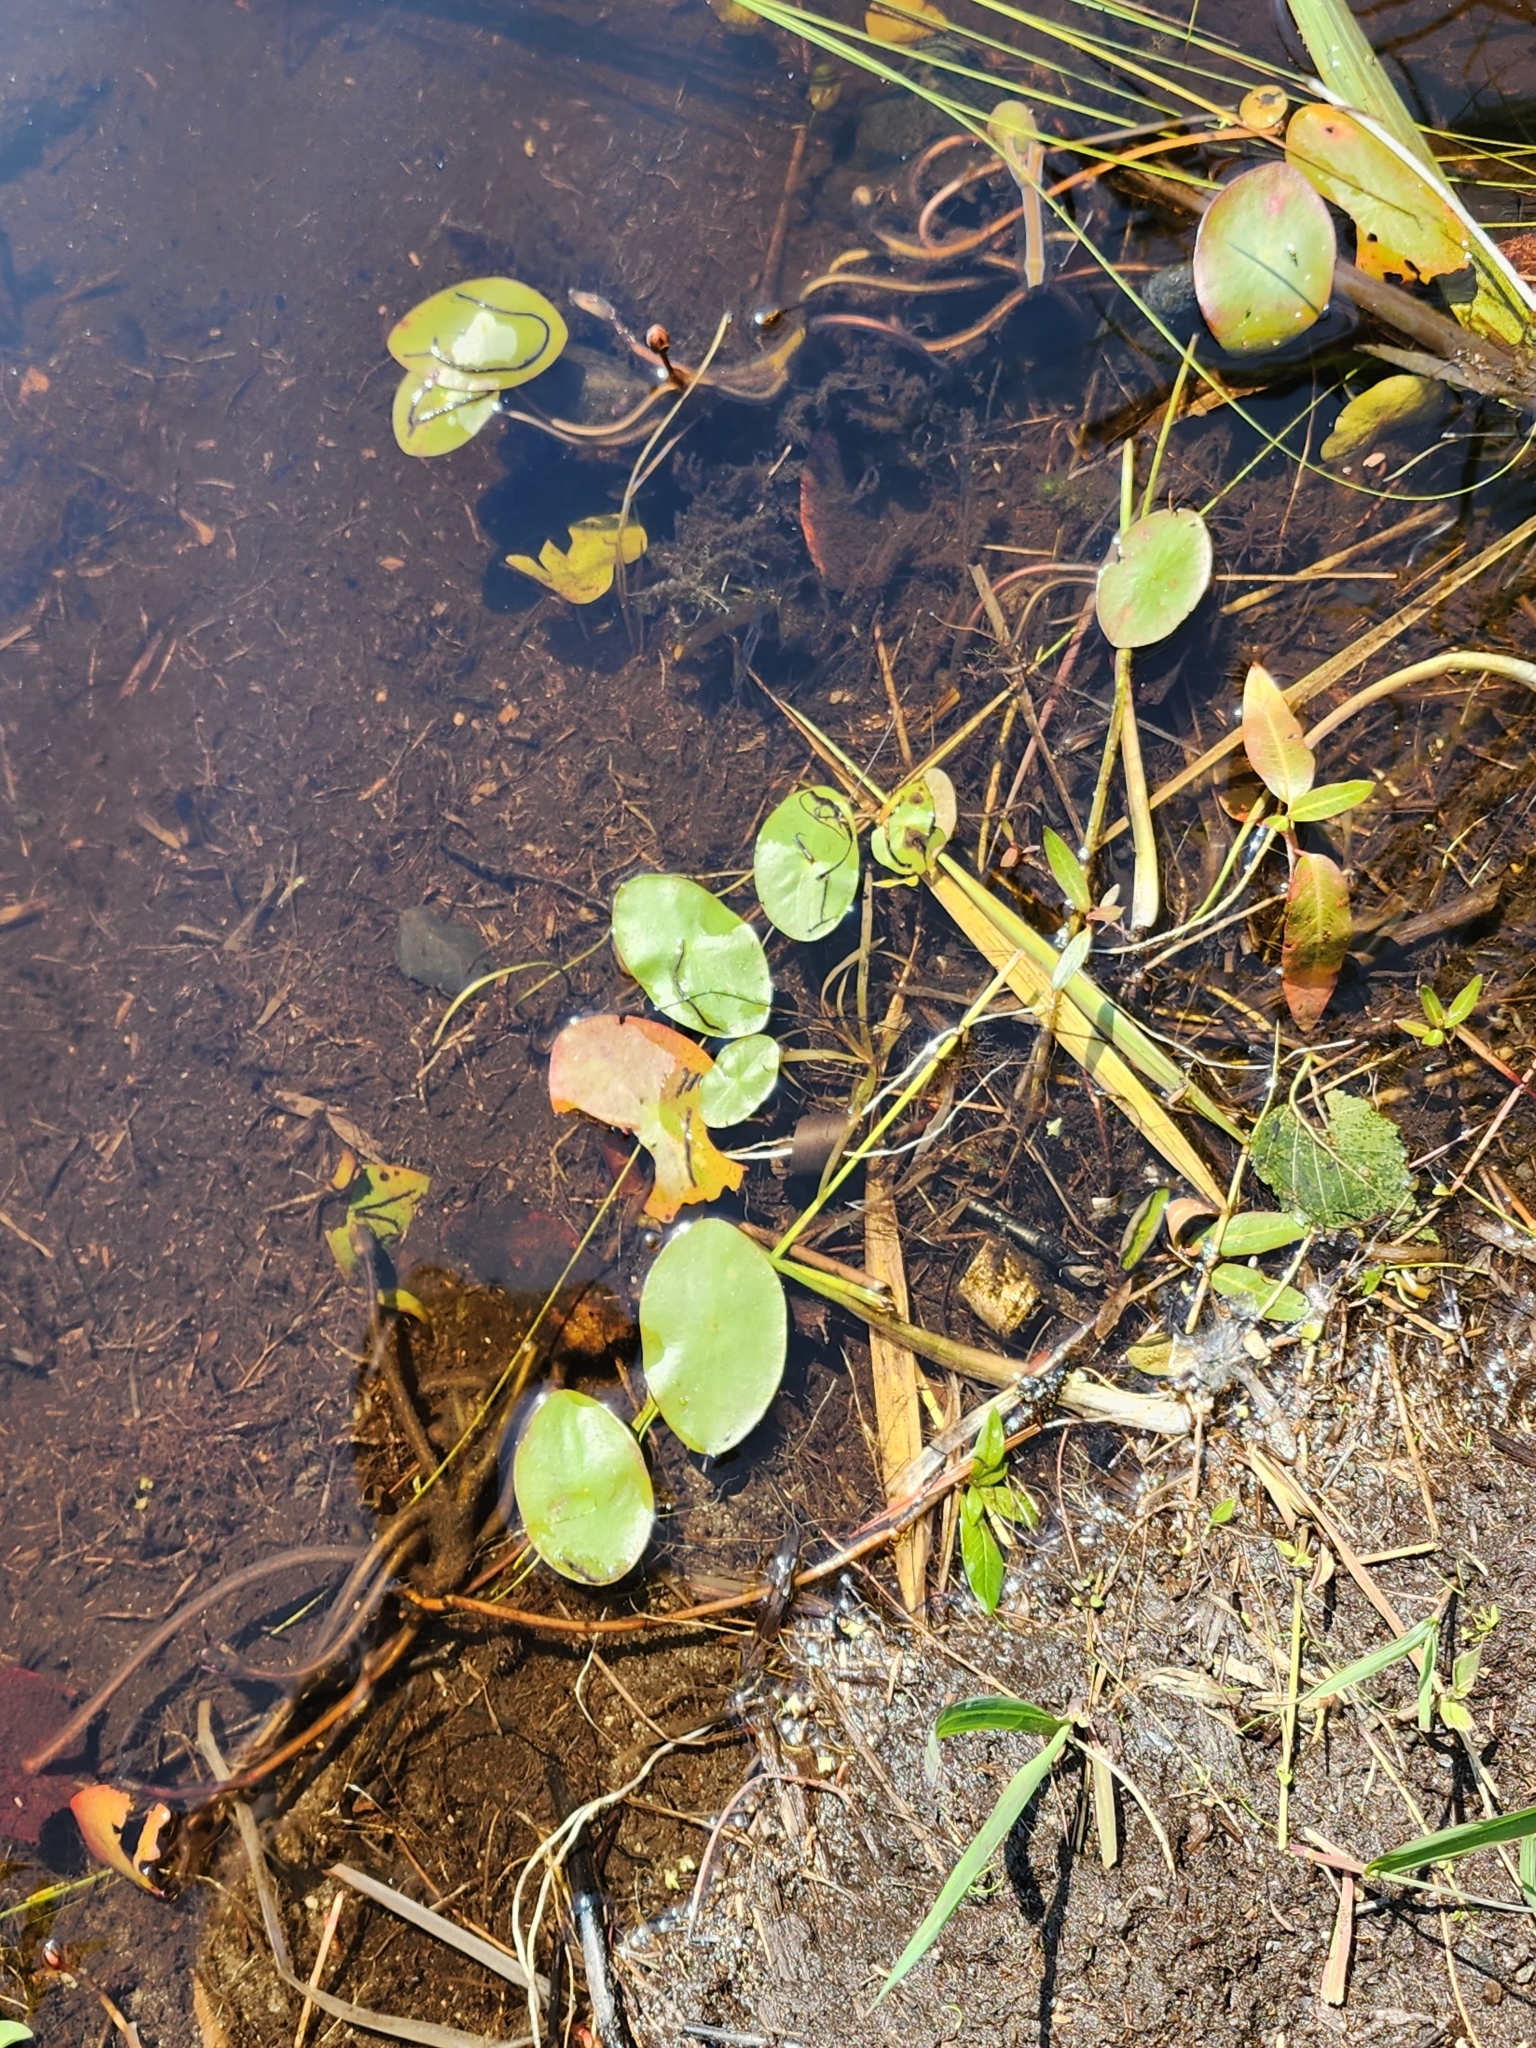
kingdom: Plantae
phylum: Tracheophyta
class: Magnoliopsida
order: Nymphaeales
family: Cabombaceae
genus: Brasenia
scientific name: Brasenia schreberi
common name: Water-shield
